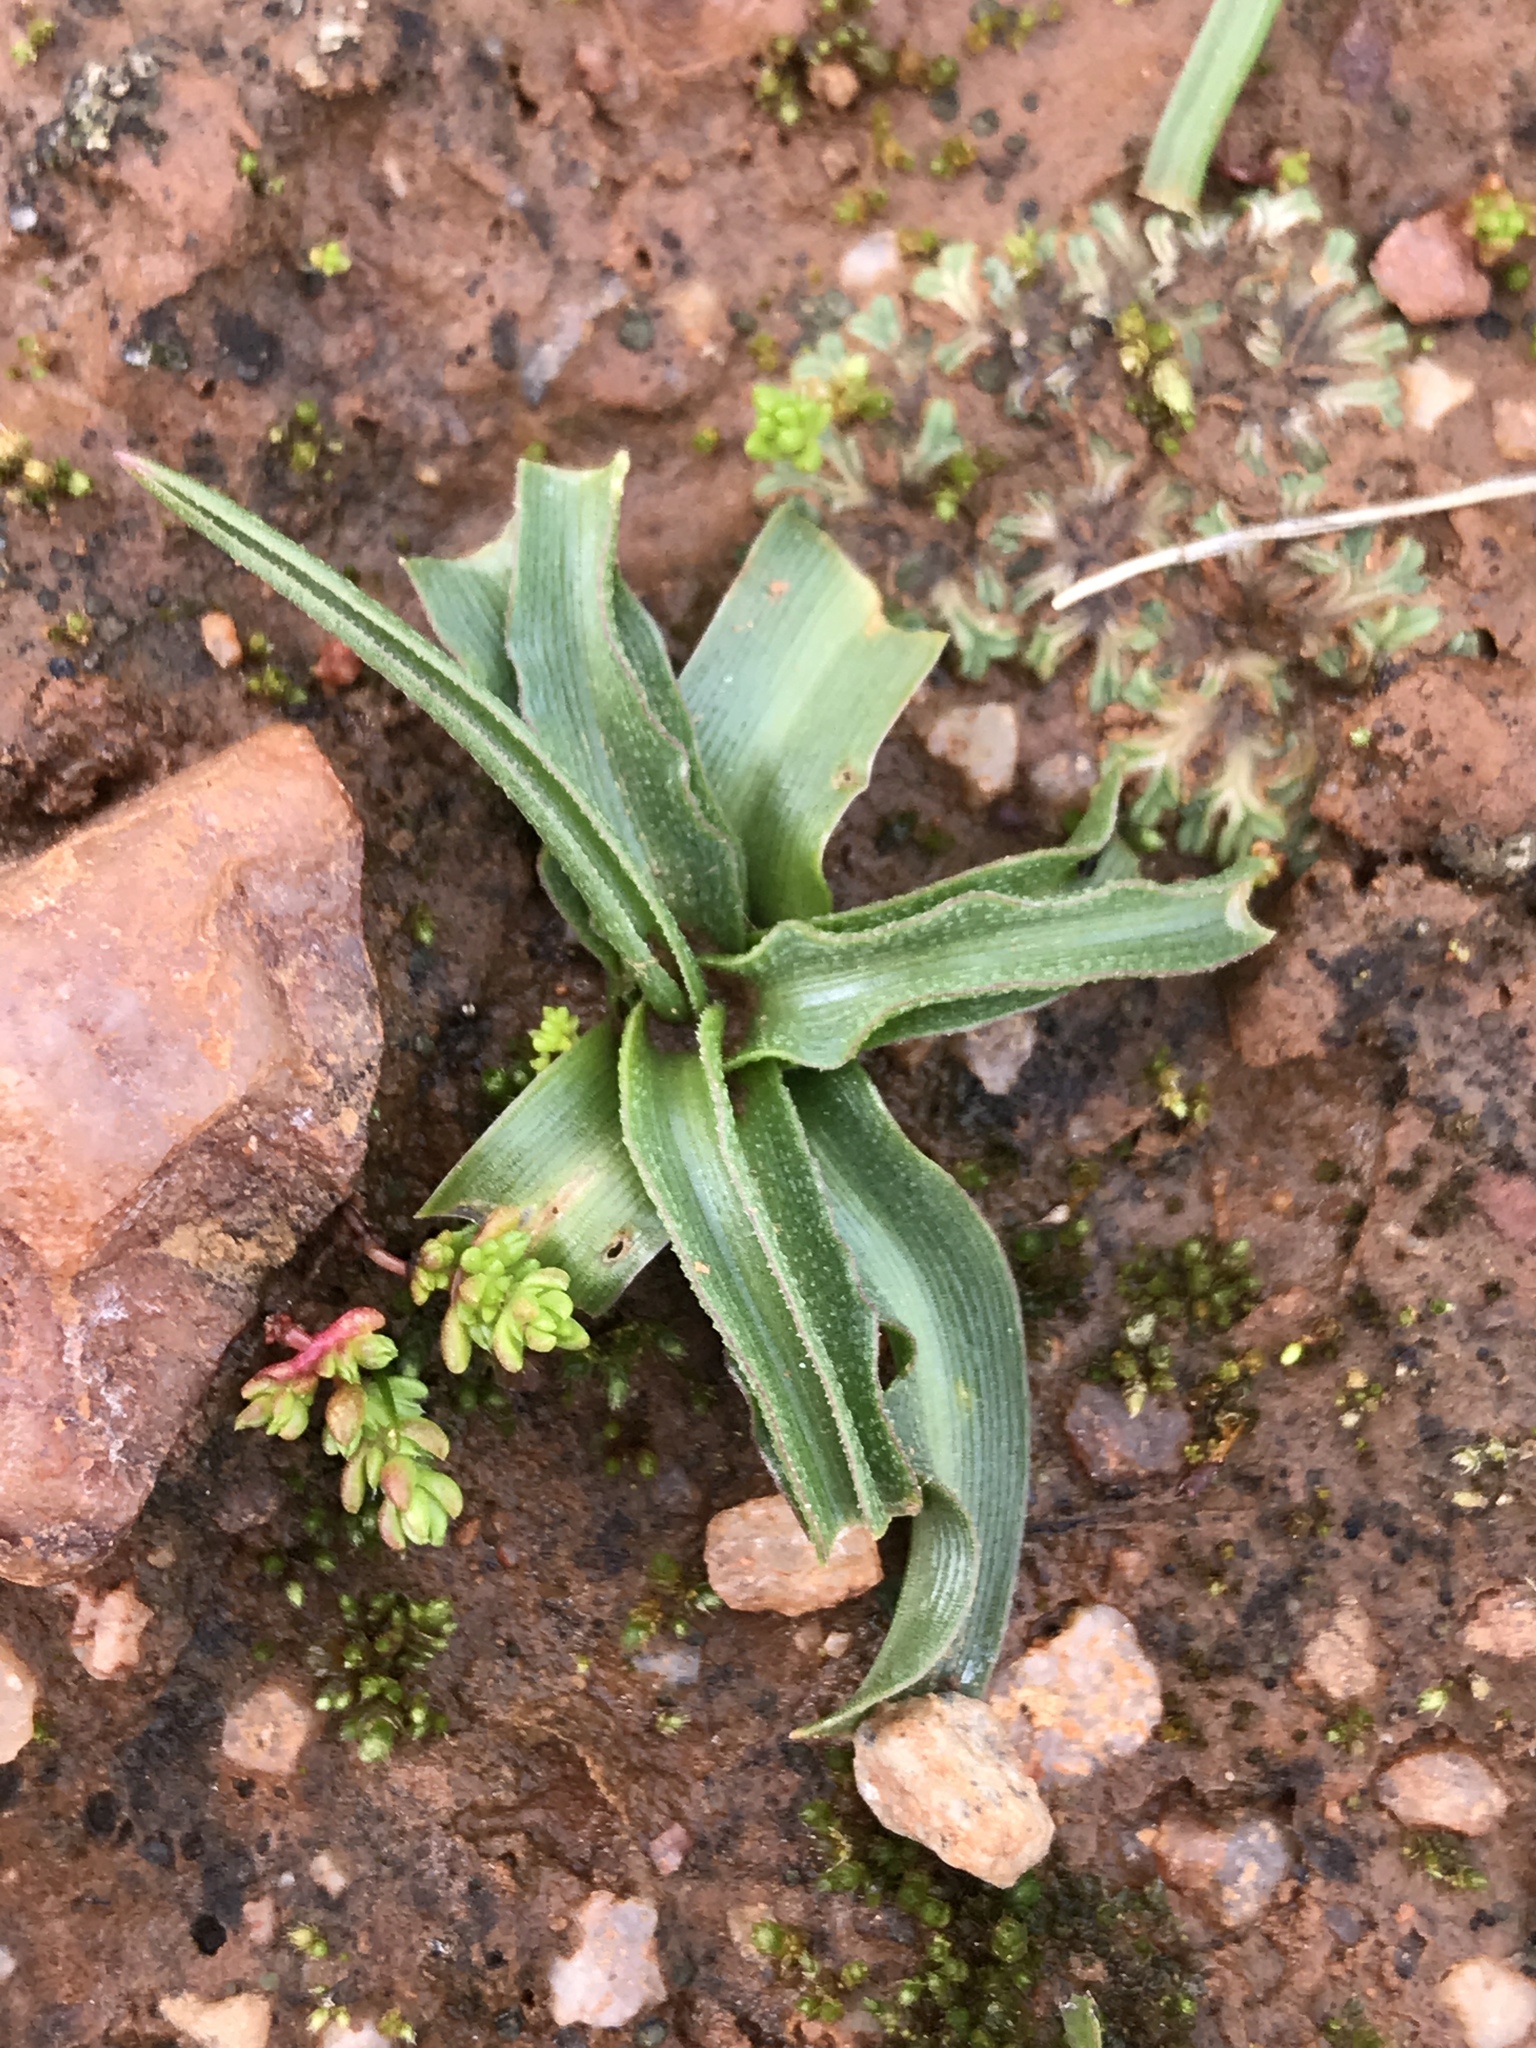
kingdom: Plantae
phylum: Tracheophyta
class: Liliopsida
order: Asparagales
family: Asparagaceae
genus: Hooveria
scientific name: Hooveria purpurea
